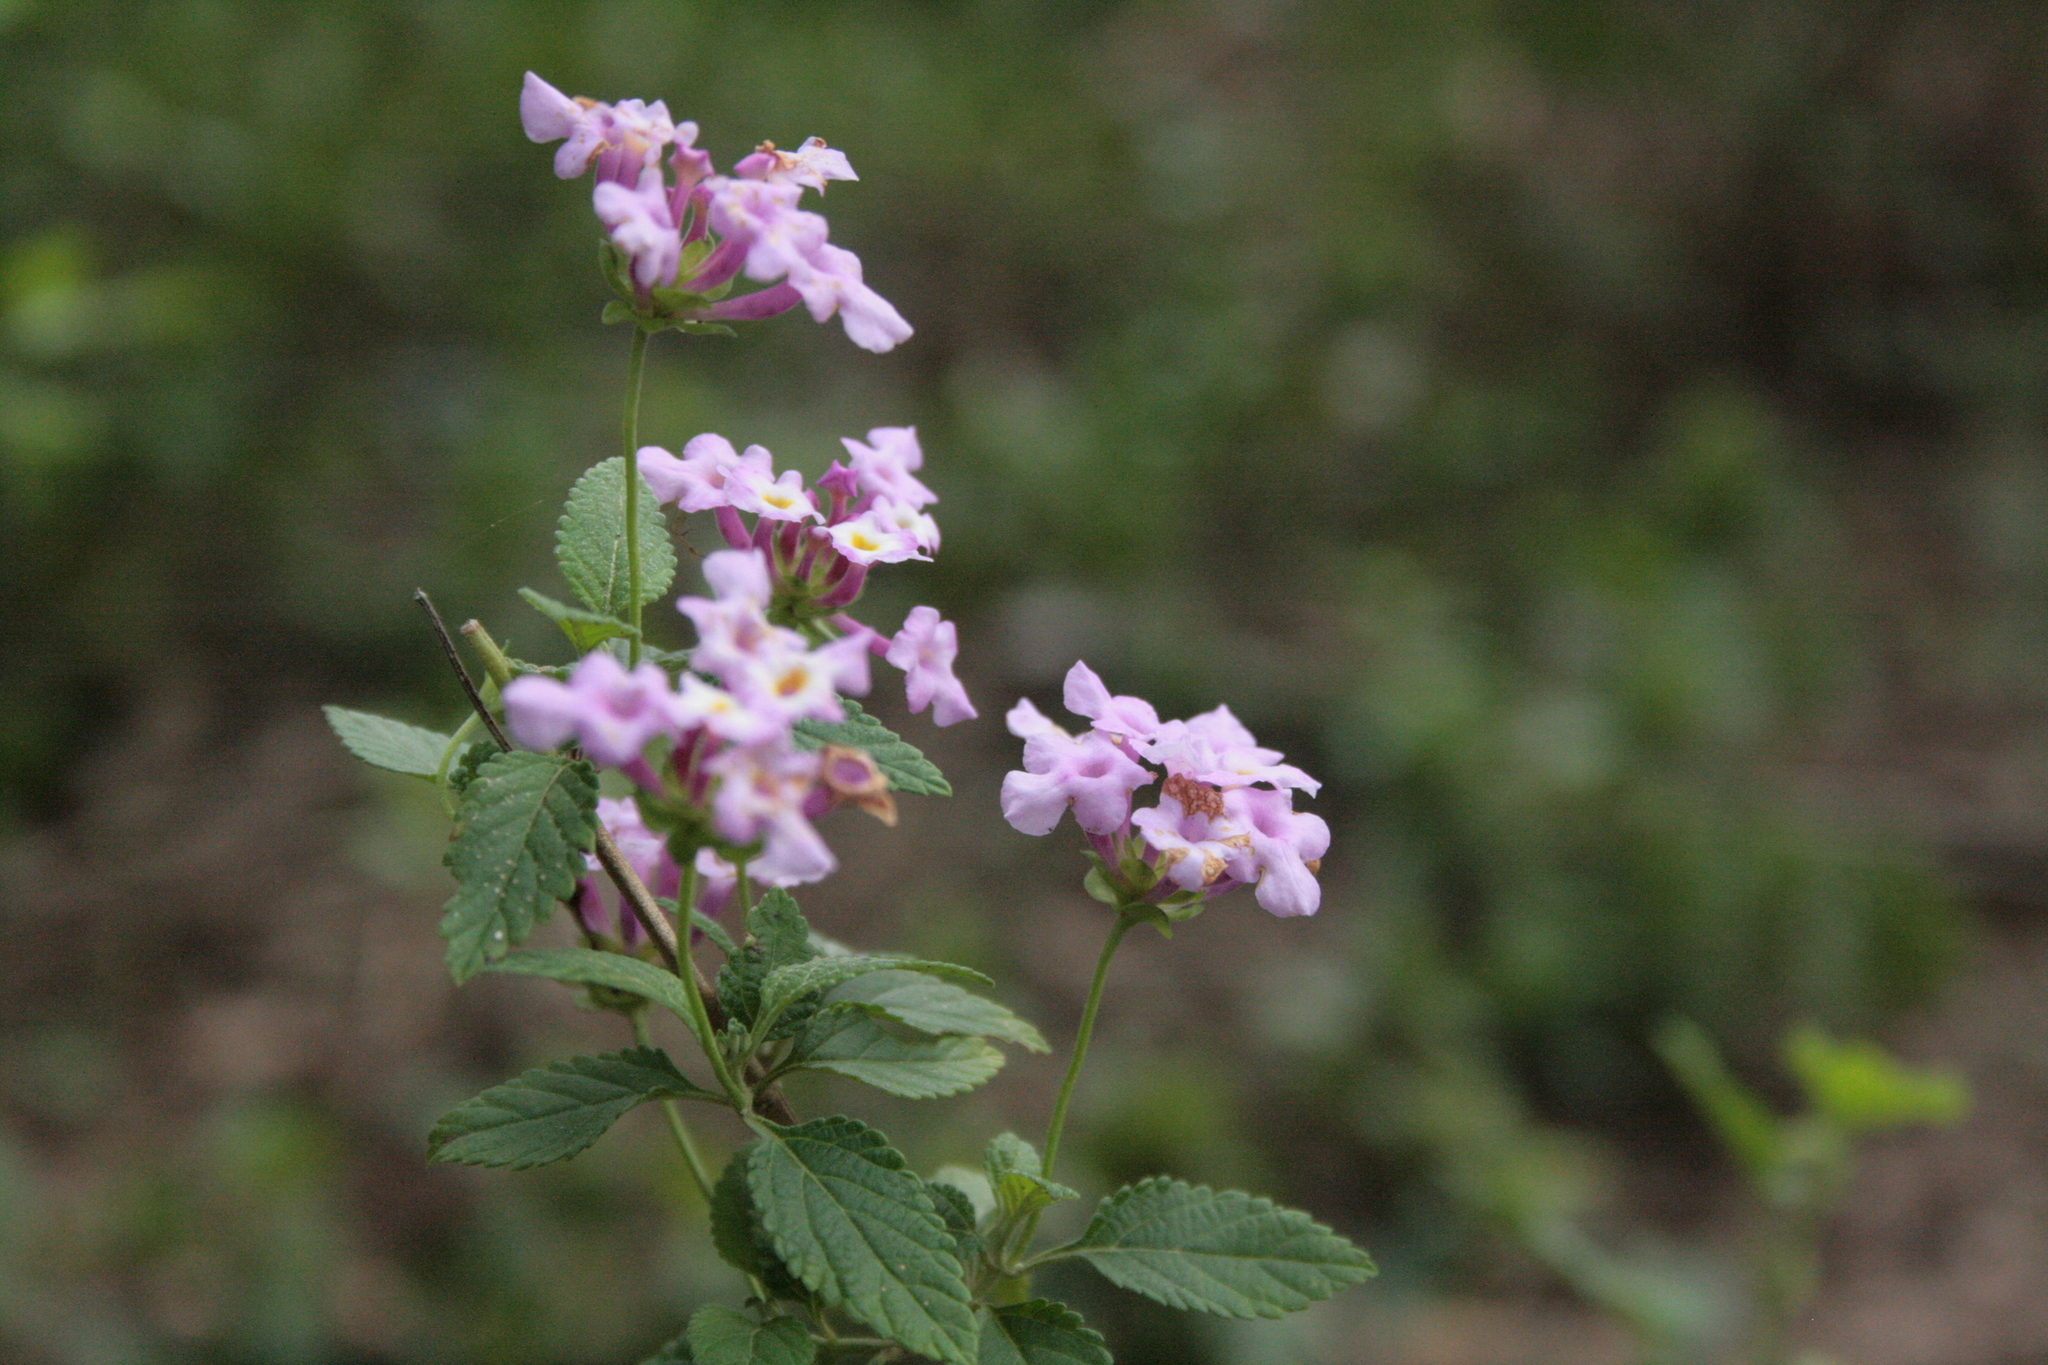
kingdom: Plantae
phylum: Tracheophyta
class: Magnoliopsida
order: Lamiales
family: Verbenaceae
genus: Lantana
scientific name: Lantana montevidensis
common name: Trailing shrubverbena
